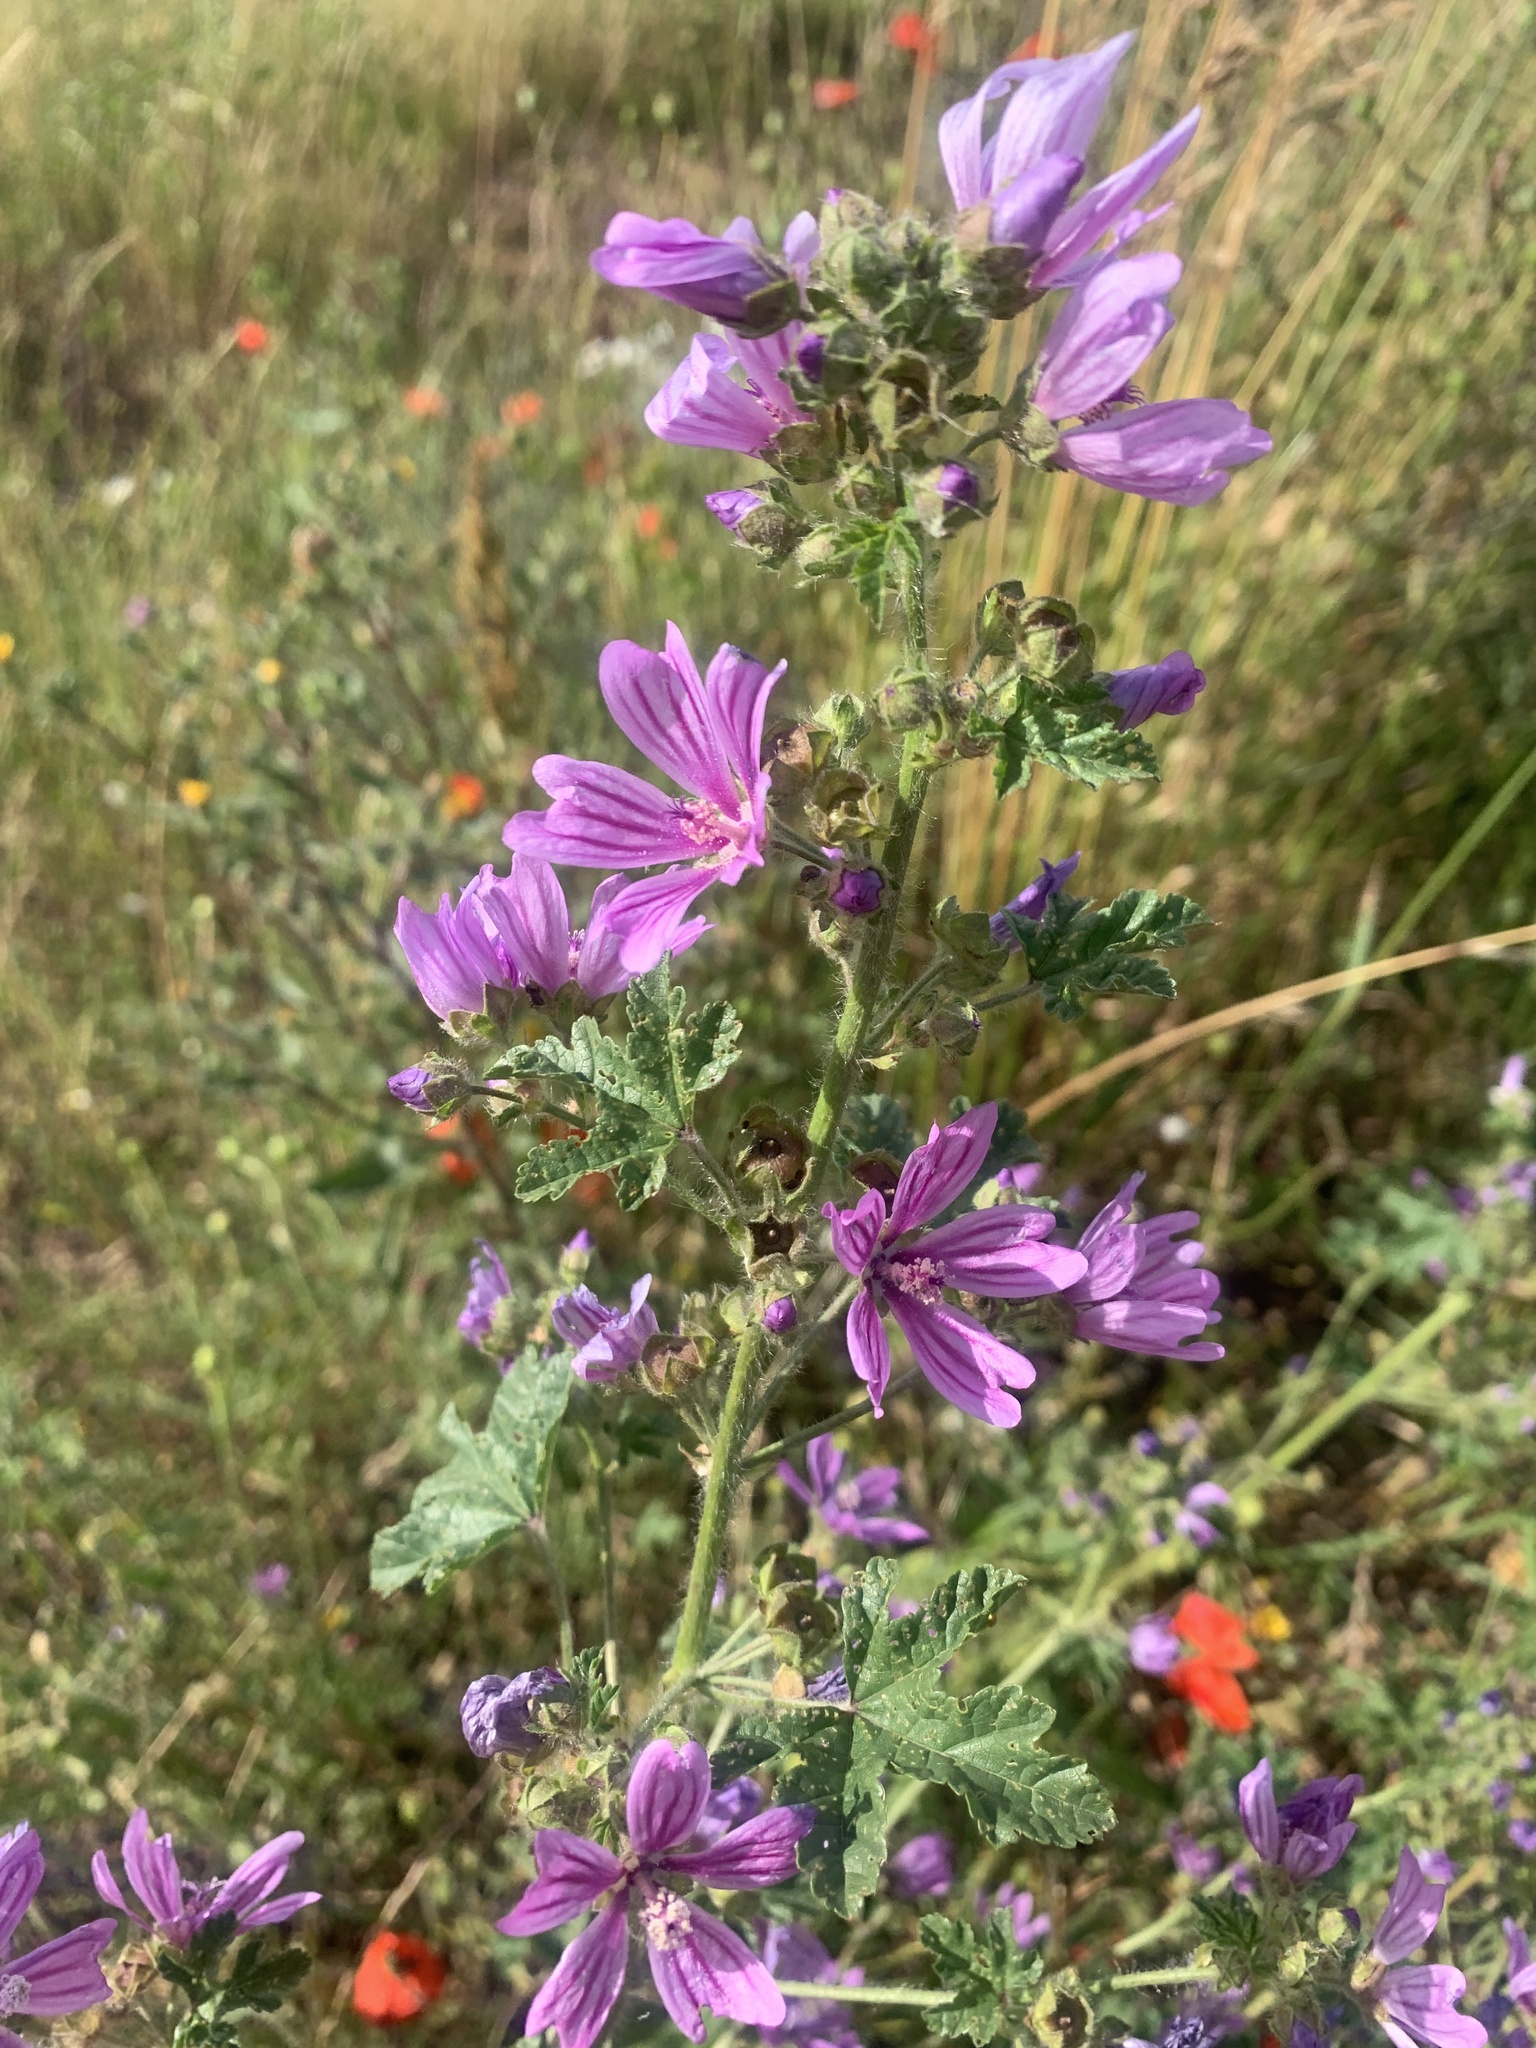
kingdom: Plantae
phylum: Tracheophyta
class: Magnoliopsida
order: Malvales
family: Malvaceae
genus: Malva
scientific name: Malva sylvestris
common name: Common mallow
